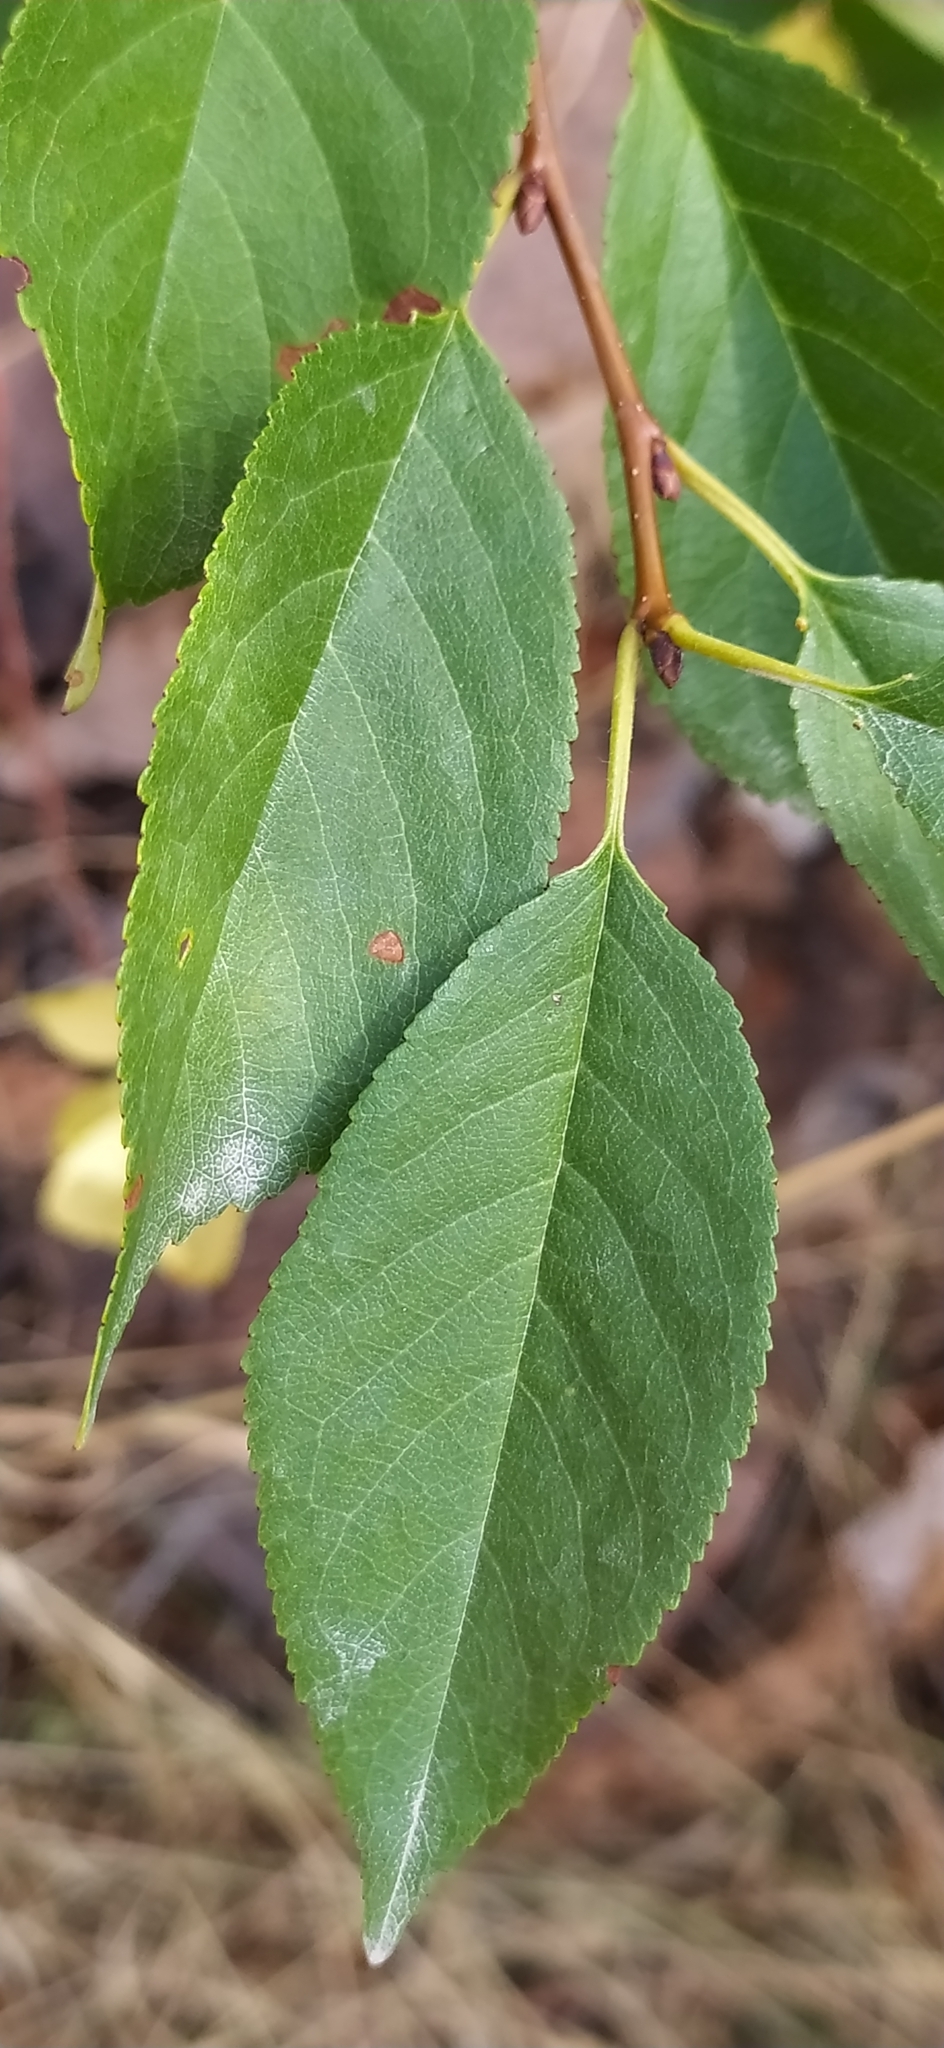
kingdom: Plantae
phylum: Tracheophyta
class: Magnoliopsida
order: Rosales
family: Rosaceae
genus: Prunus
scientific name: Prunus cerasus
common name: Morello cherry
